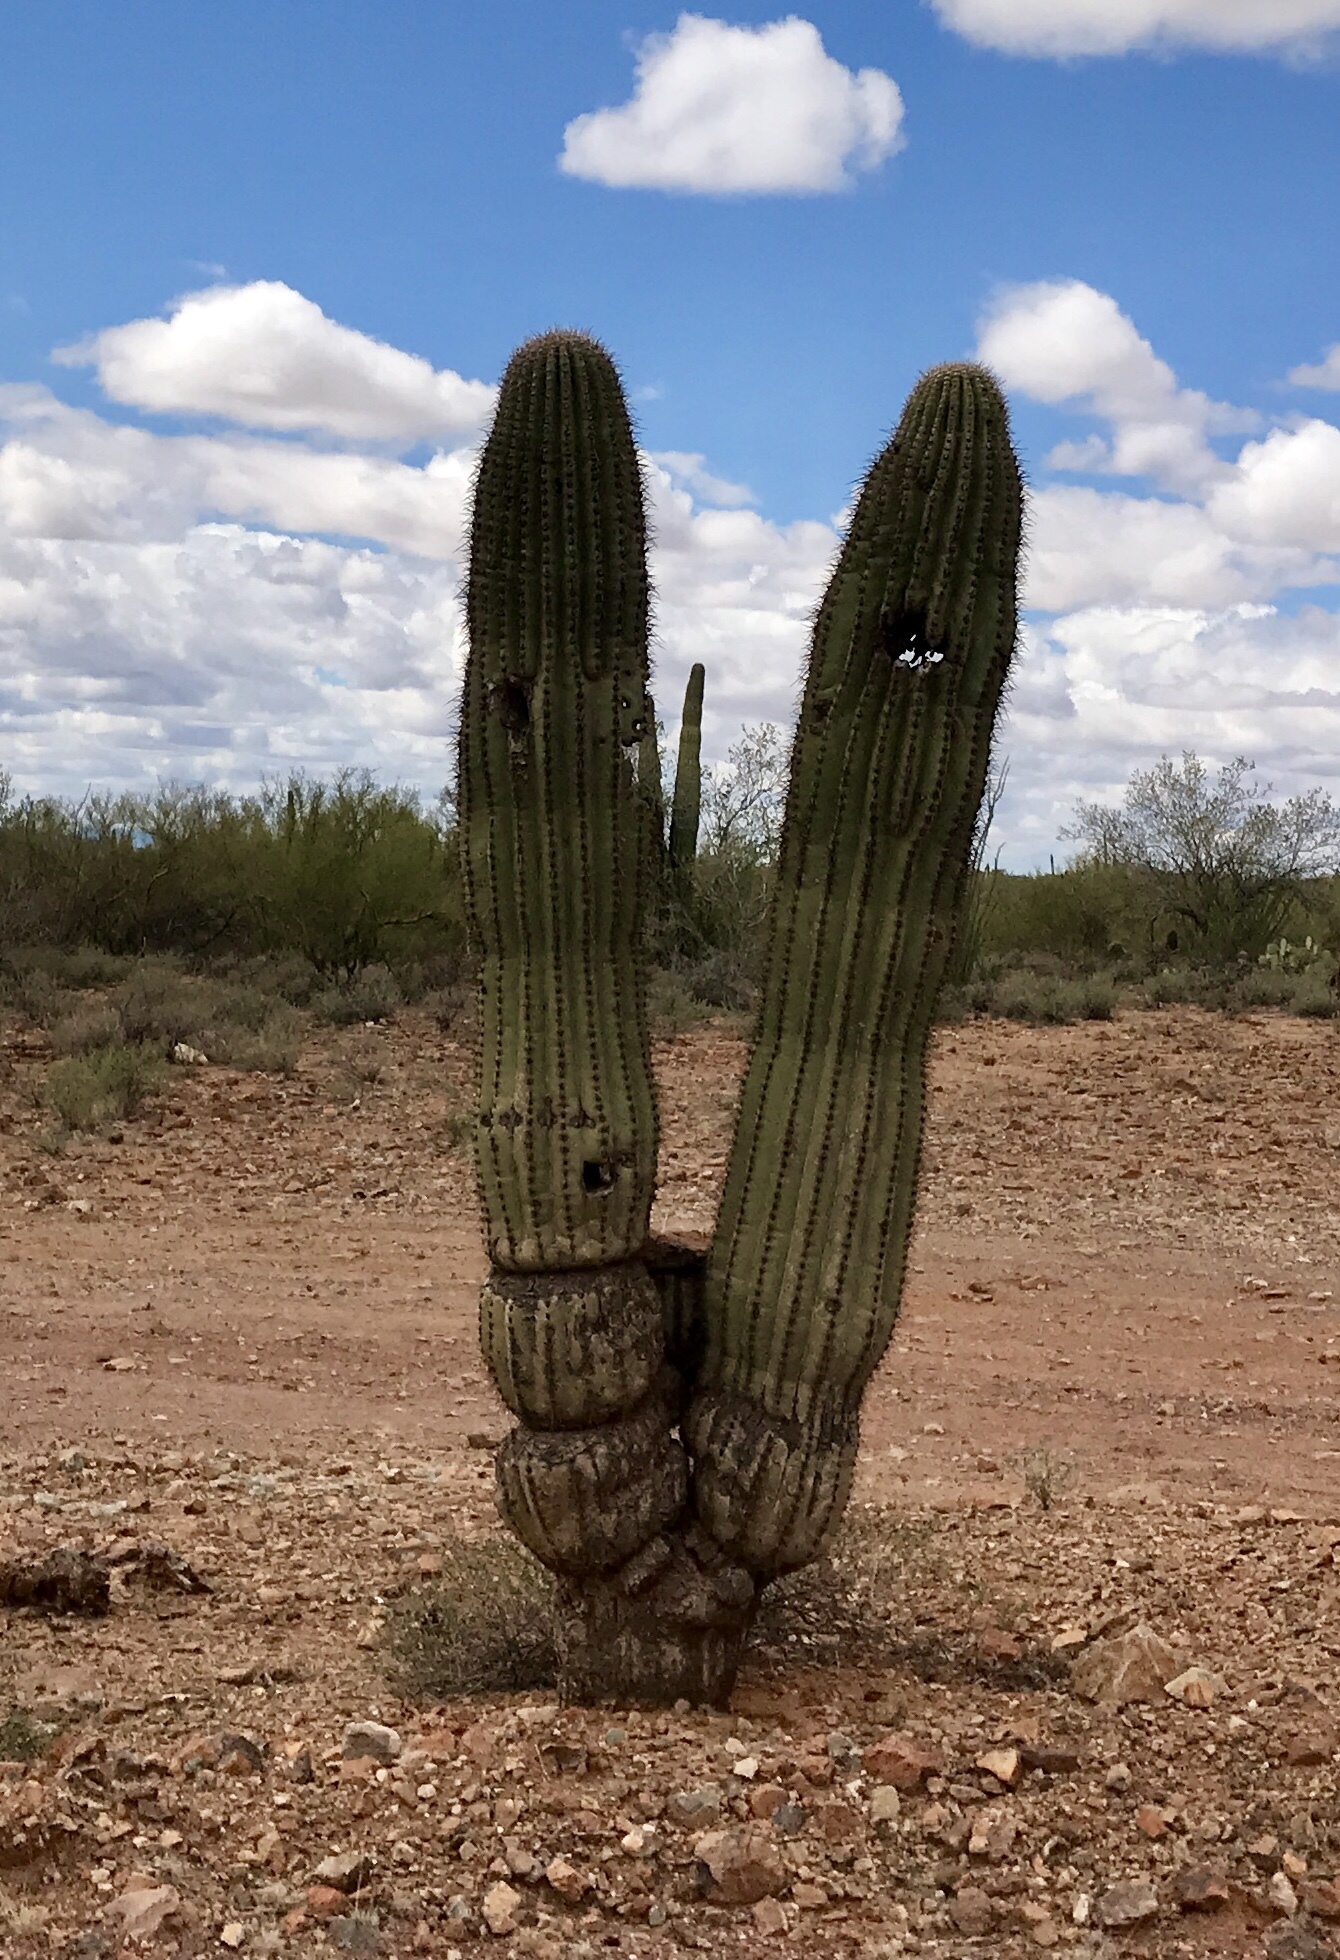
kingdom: Plantae
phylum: Tracheophyta
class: Magnoliopsida
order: Caryophyllales
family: Cactaceae
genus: Carnegiea
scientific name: Carnegiea gigantea
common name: Saguaro
